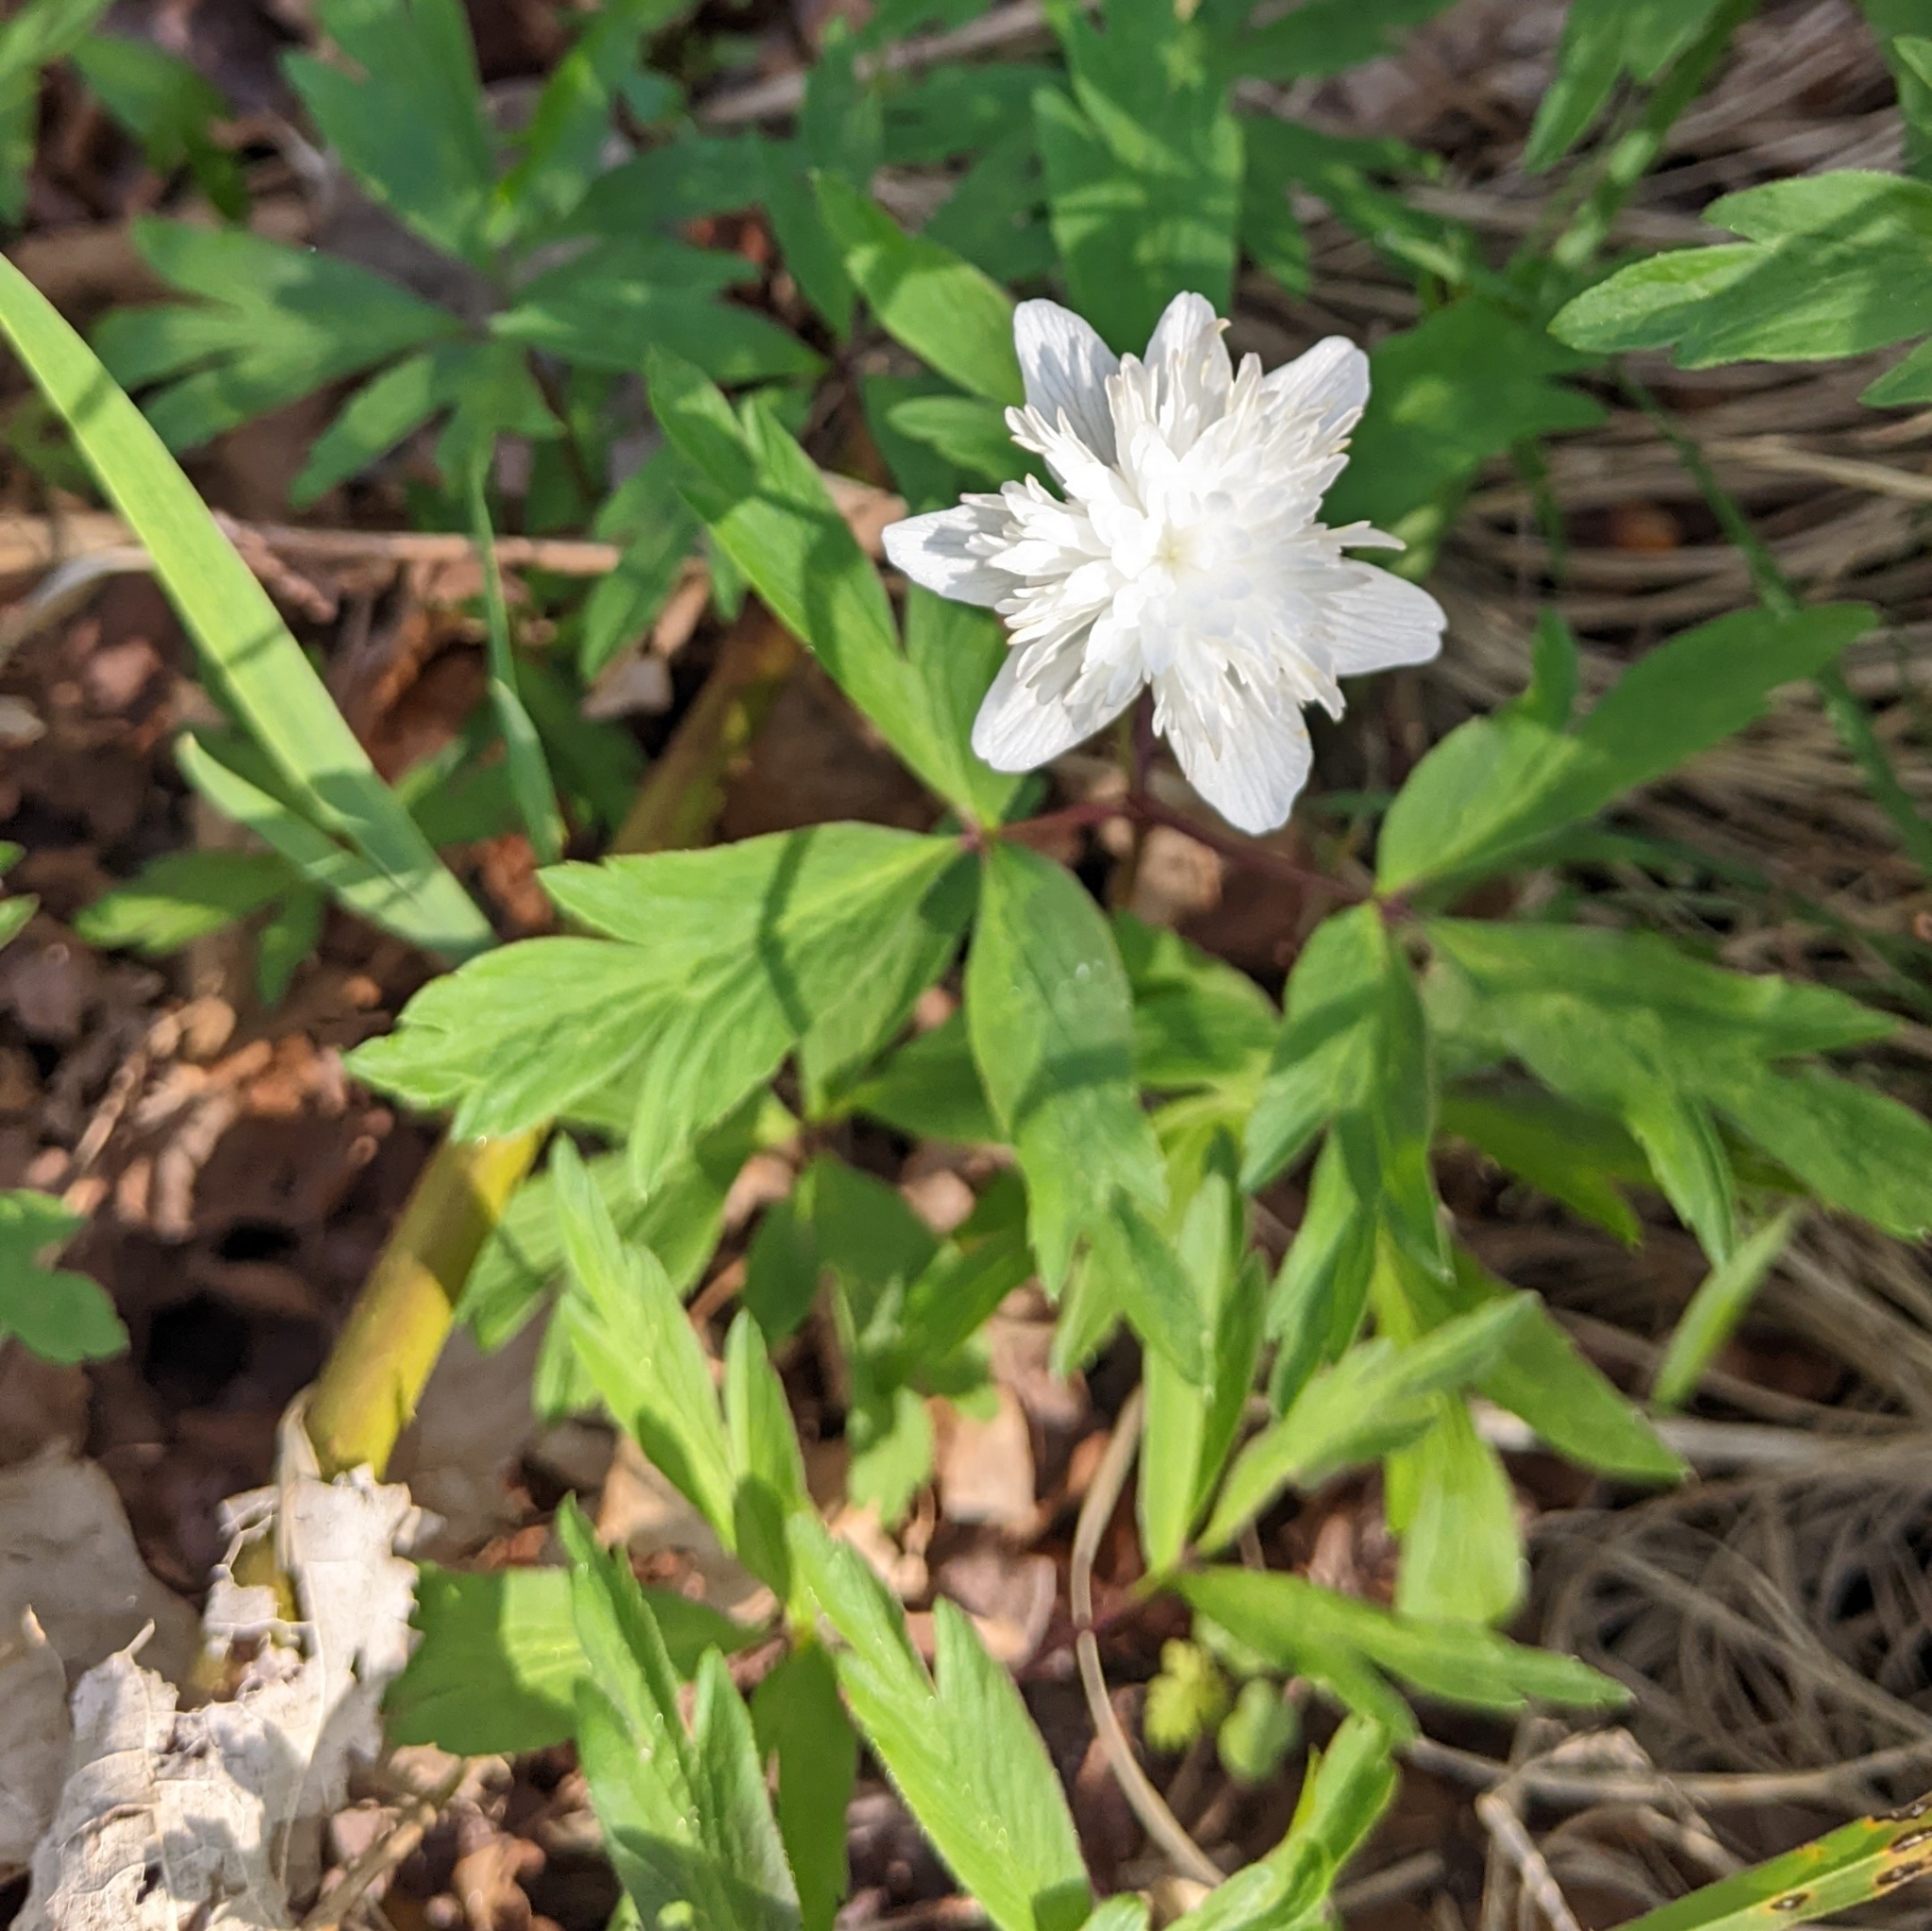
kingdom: Plantae
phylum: Tracheophyta
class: Magnoliopsida
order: Ranunculales
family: Ranunculaceae
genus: Anemone
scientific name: Anemone nemorosa
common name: Wood anemone
